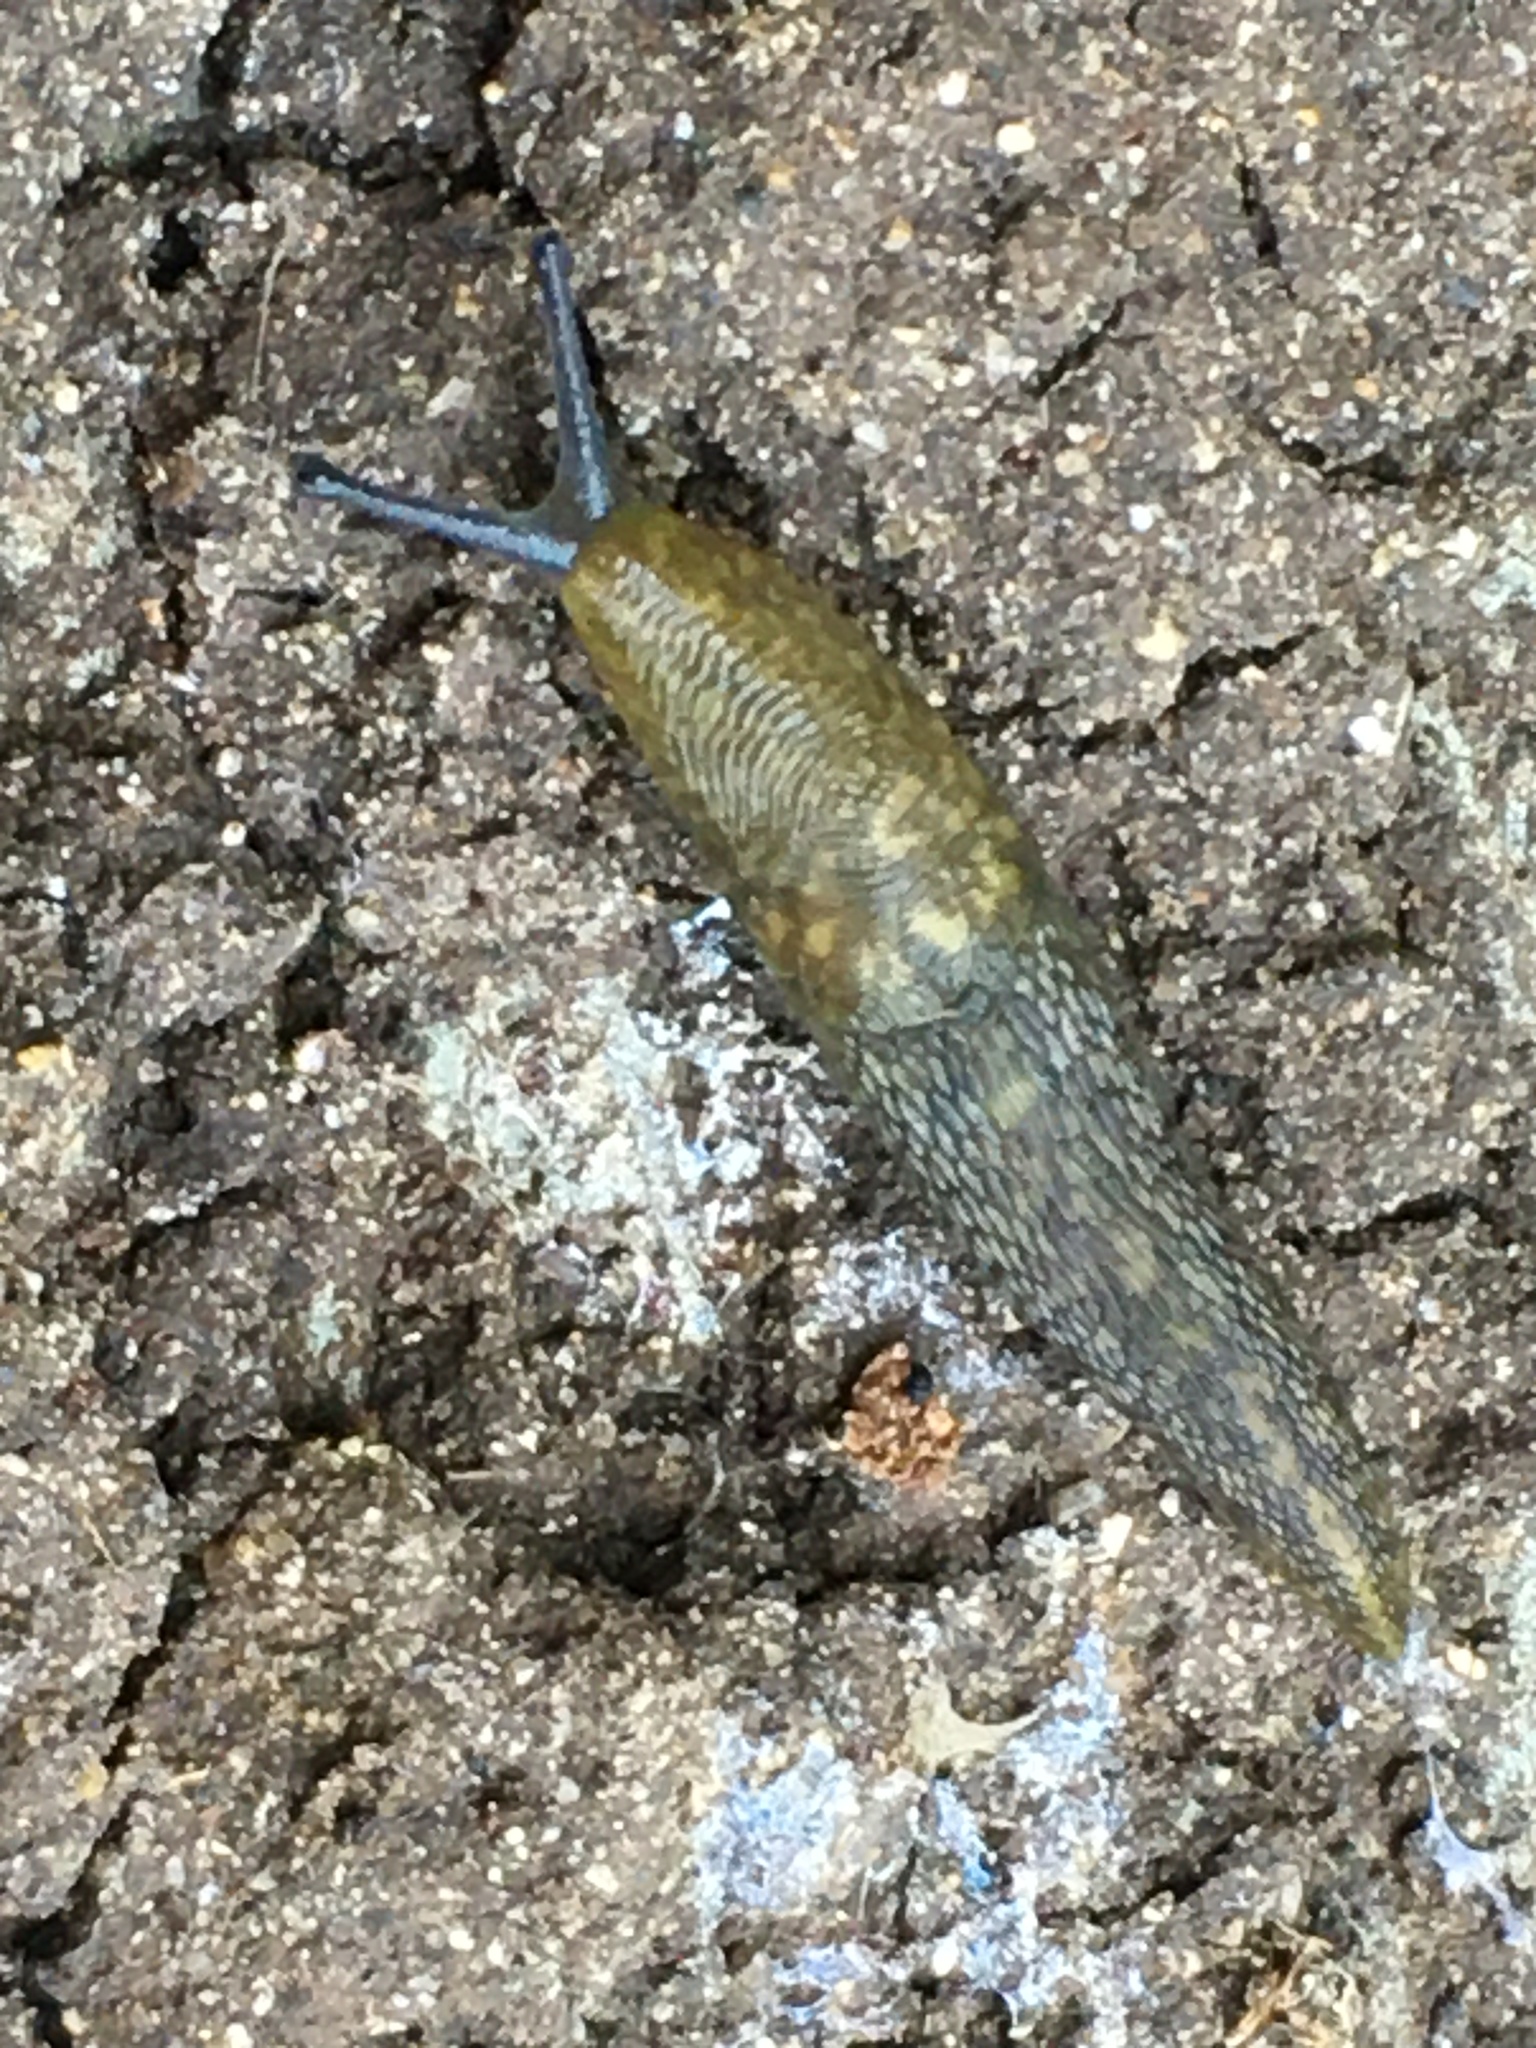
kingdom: Animalia
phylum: Mollusca
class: Gastropoda
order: Stylommatophora
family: Limacidae
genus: Limacus
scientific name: Limacus flavus
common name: Yellow gardenslug
